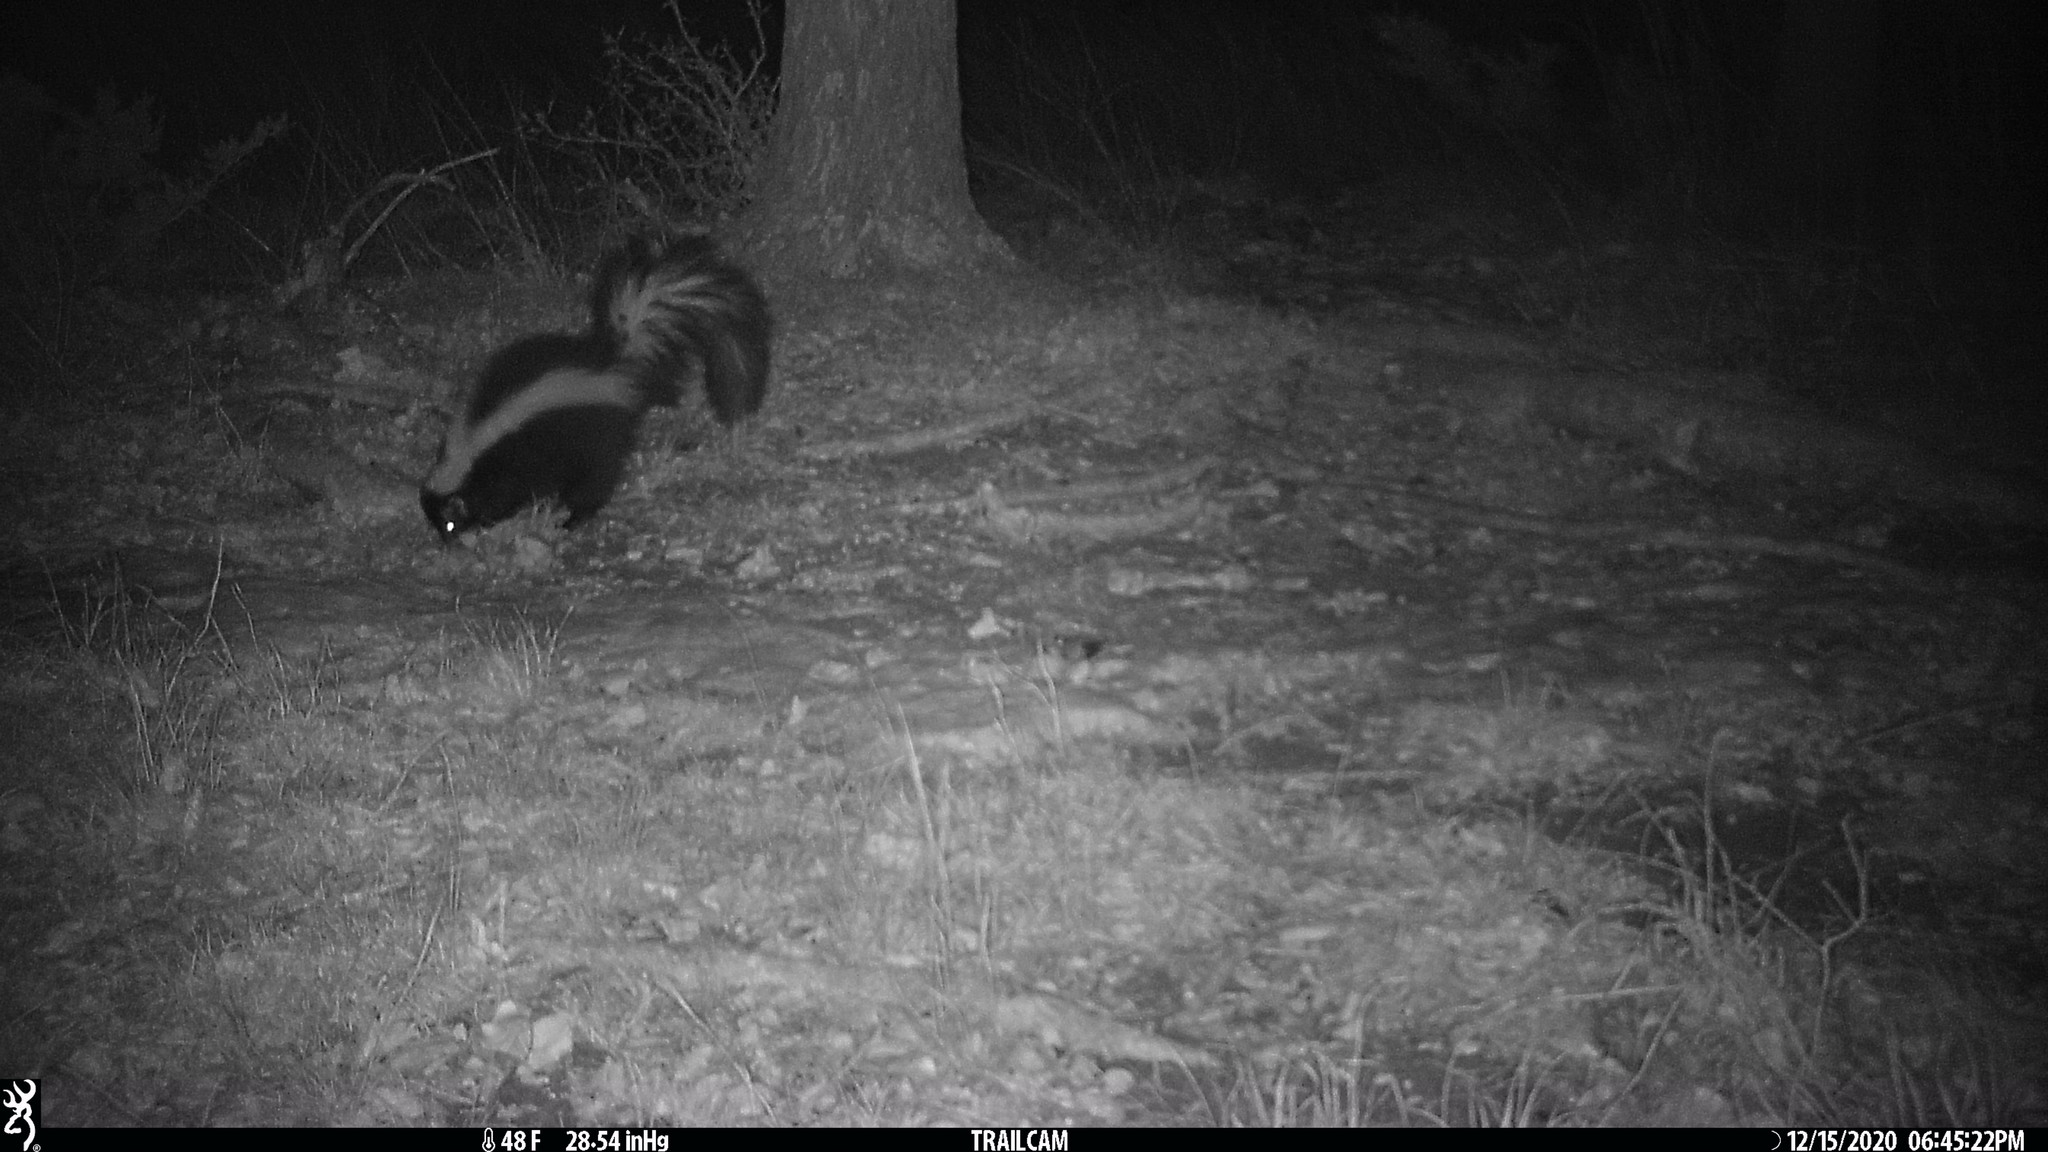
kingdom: Animalia
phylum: Chordata
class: Mammalia
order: Carnivora
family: Mephitidae
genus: Mephitis
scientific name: Mephitis mephitis
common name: Striped skunk
